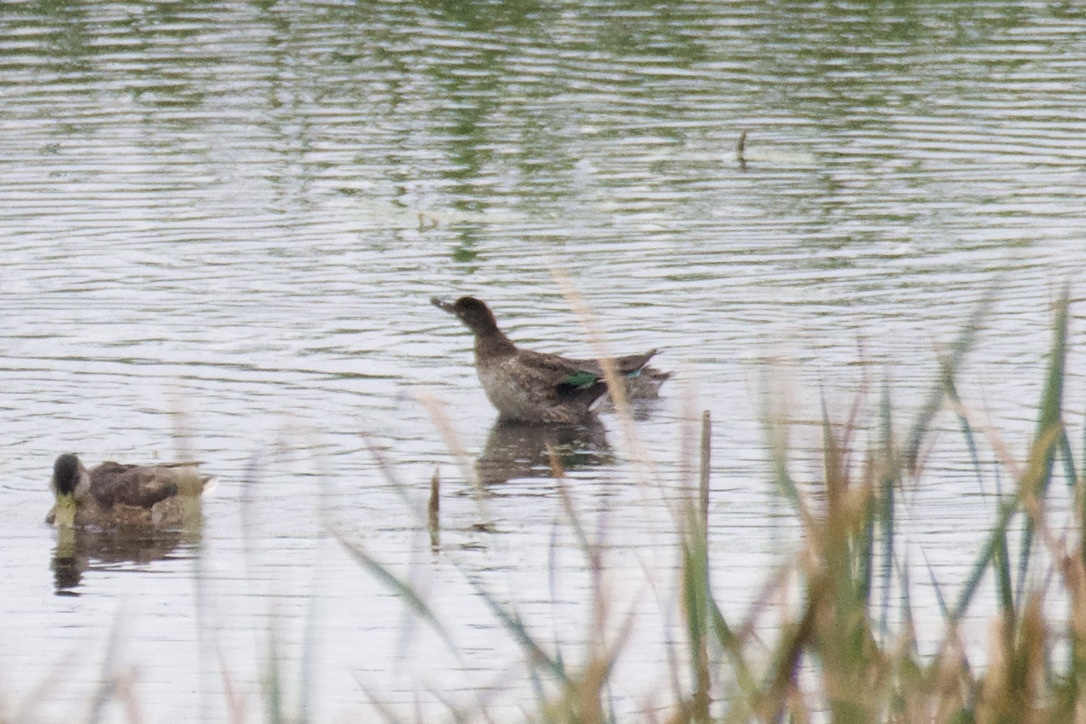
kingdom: Animalia
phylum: Chordata
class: Aves
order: Anseriformes
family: Anatidae
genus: Anas
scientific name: Anas crecca
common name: Eurasian teal
